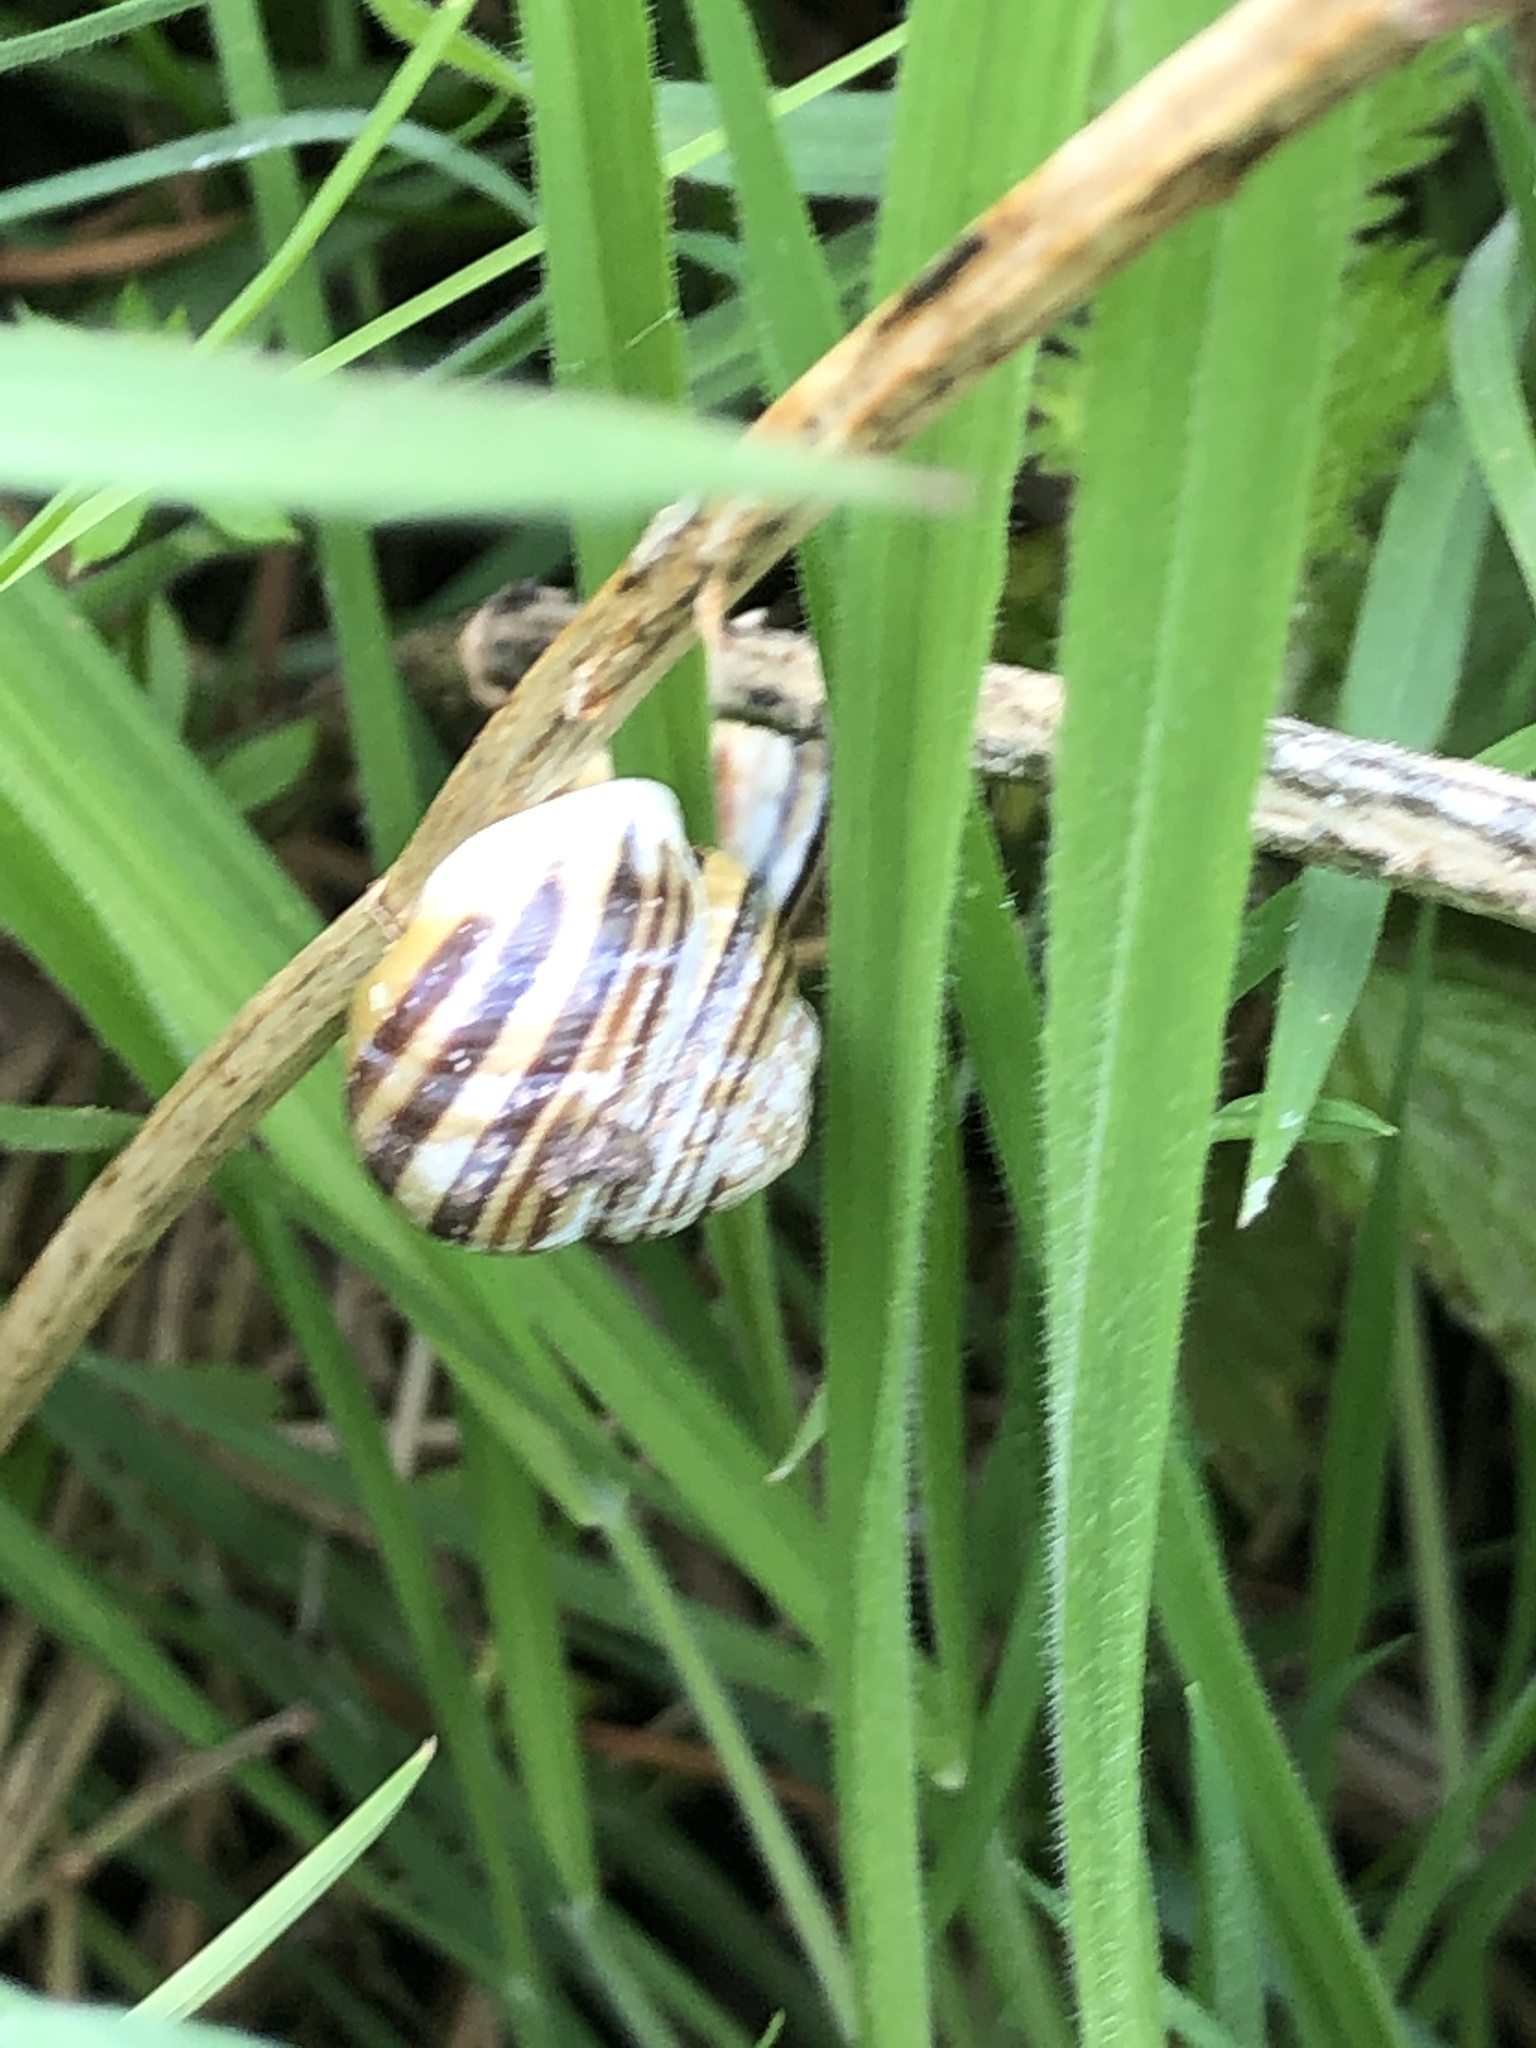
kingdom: Animalia
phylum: Mollusca
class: Gastropoda
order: Stylommatophora
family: Helicidae
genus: Cepaea
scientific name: Cepaea hortensis
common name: White-lip gardensnail
